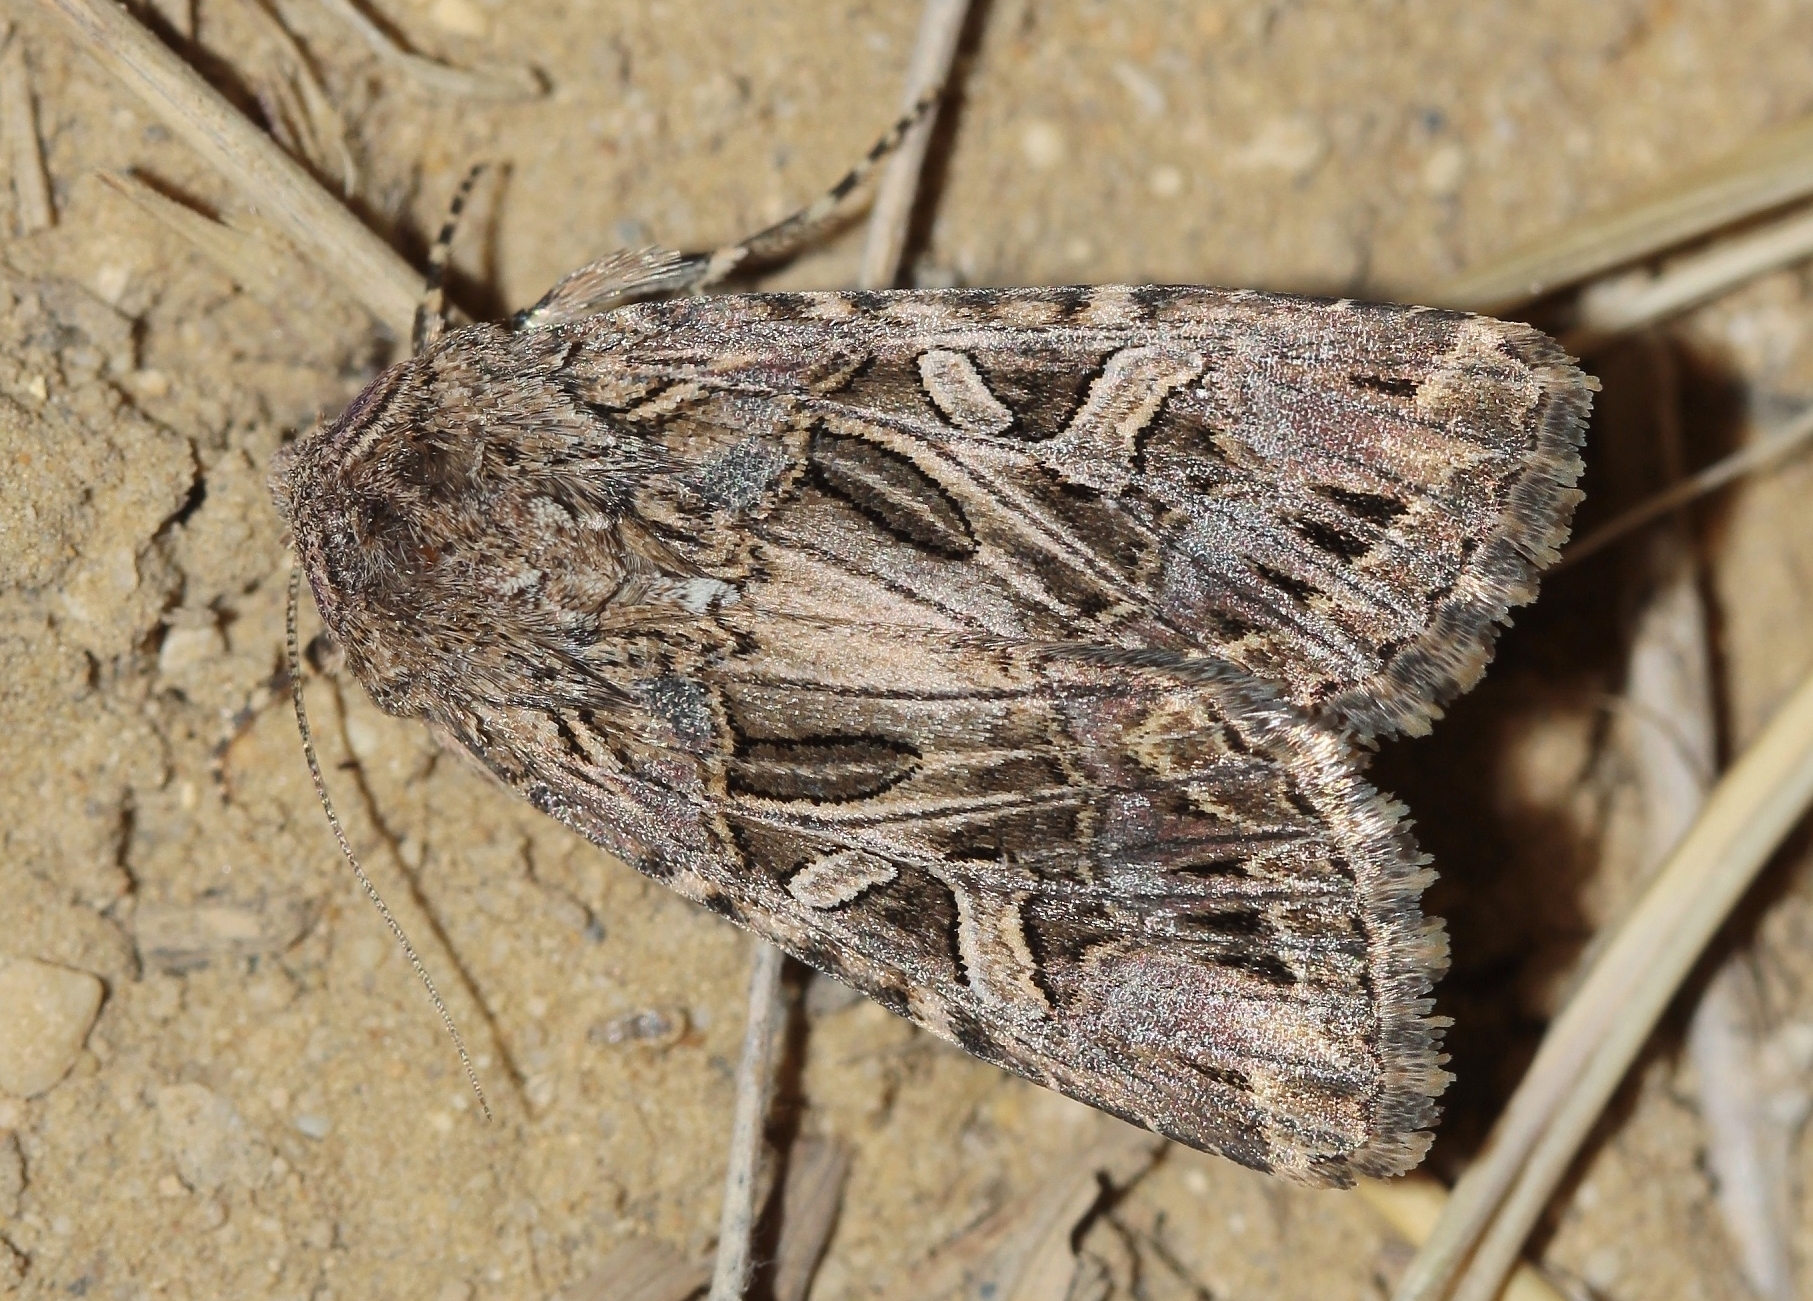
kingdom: Animalia
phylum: Arthropoda
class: Insecta
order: Lepidoptera
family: Noctuidae
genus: Anarta
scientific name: Anarta dianthi
